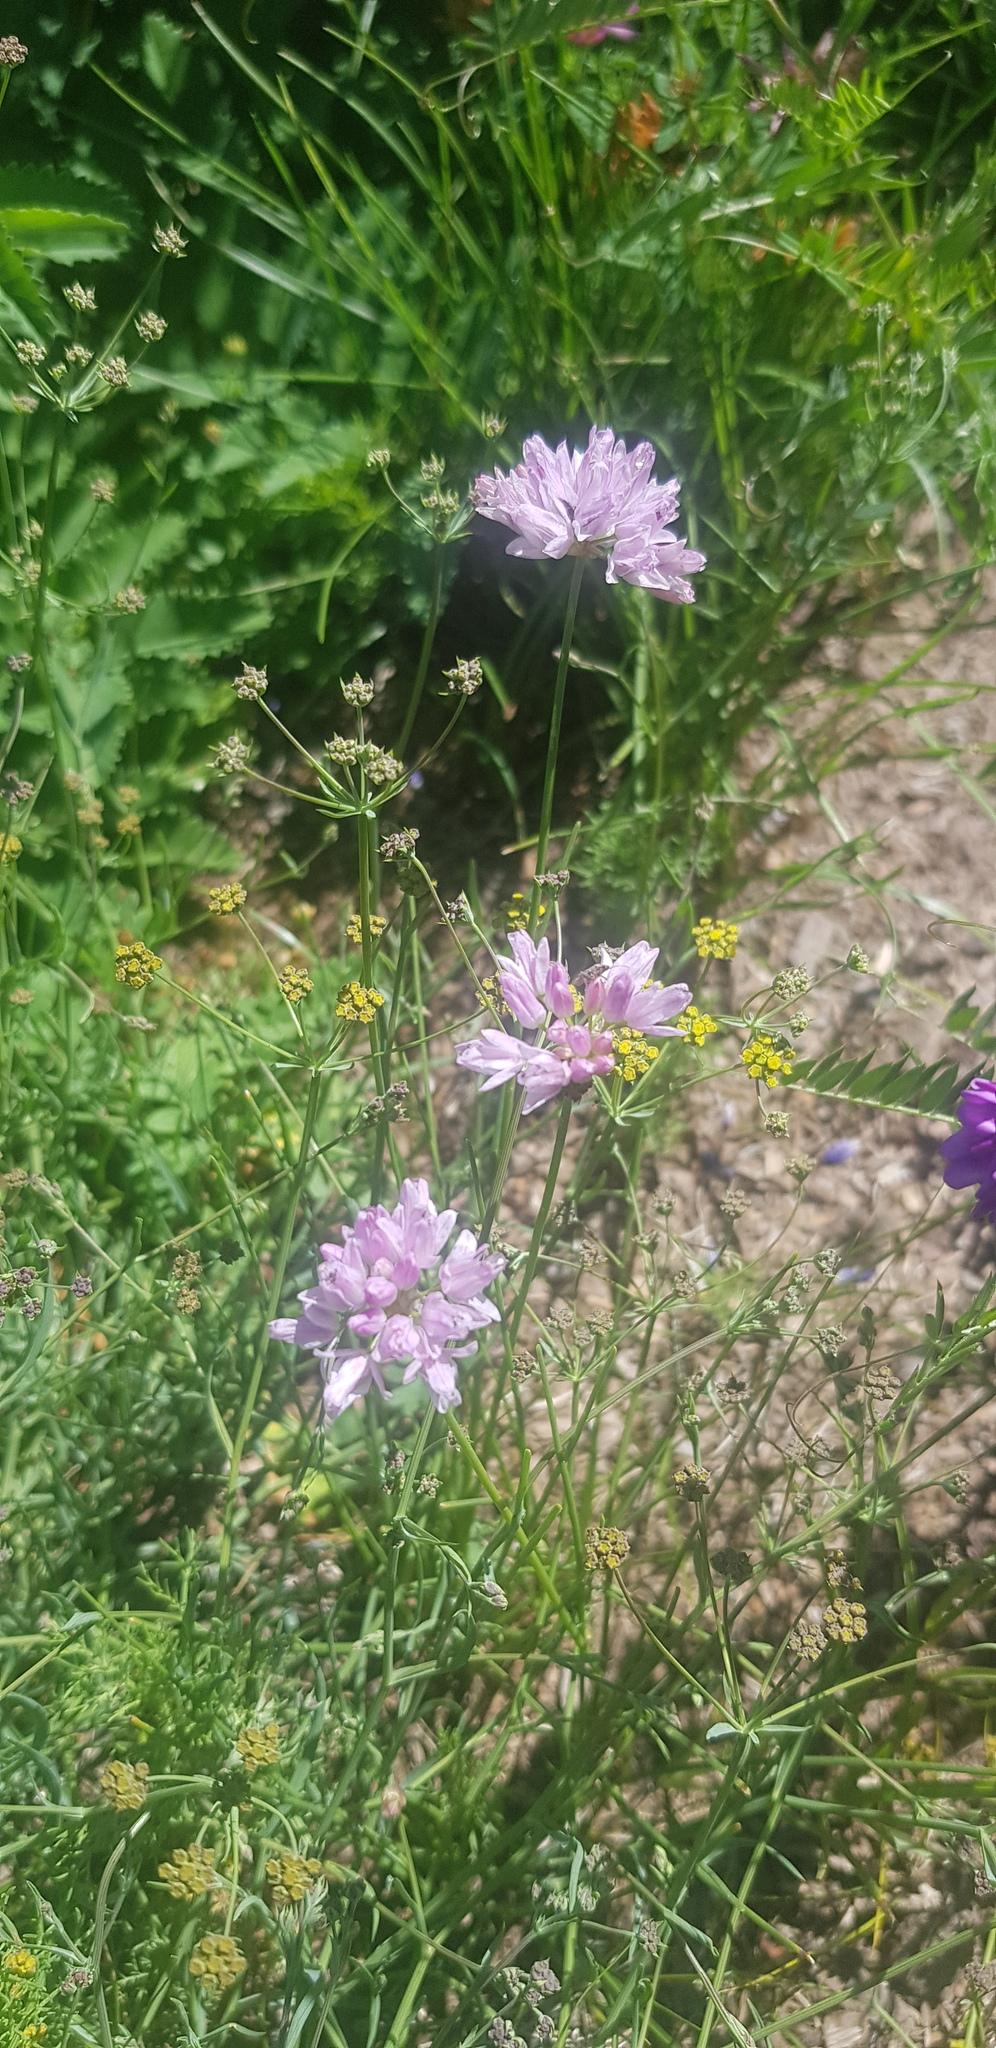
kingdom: Plantae
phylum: Tracheophyta
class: Liliopsida
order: Asparagales
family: Amaryllidaceae
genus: Allium
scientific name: Allium anisopodium
